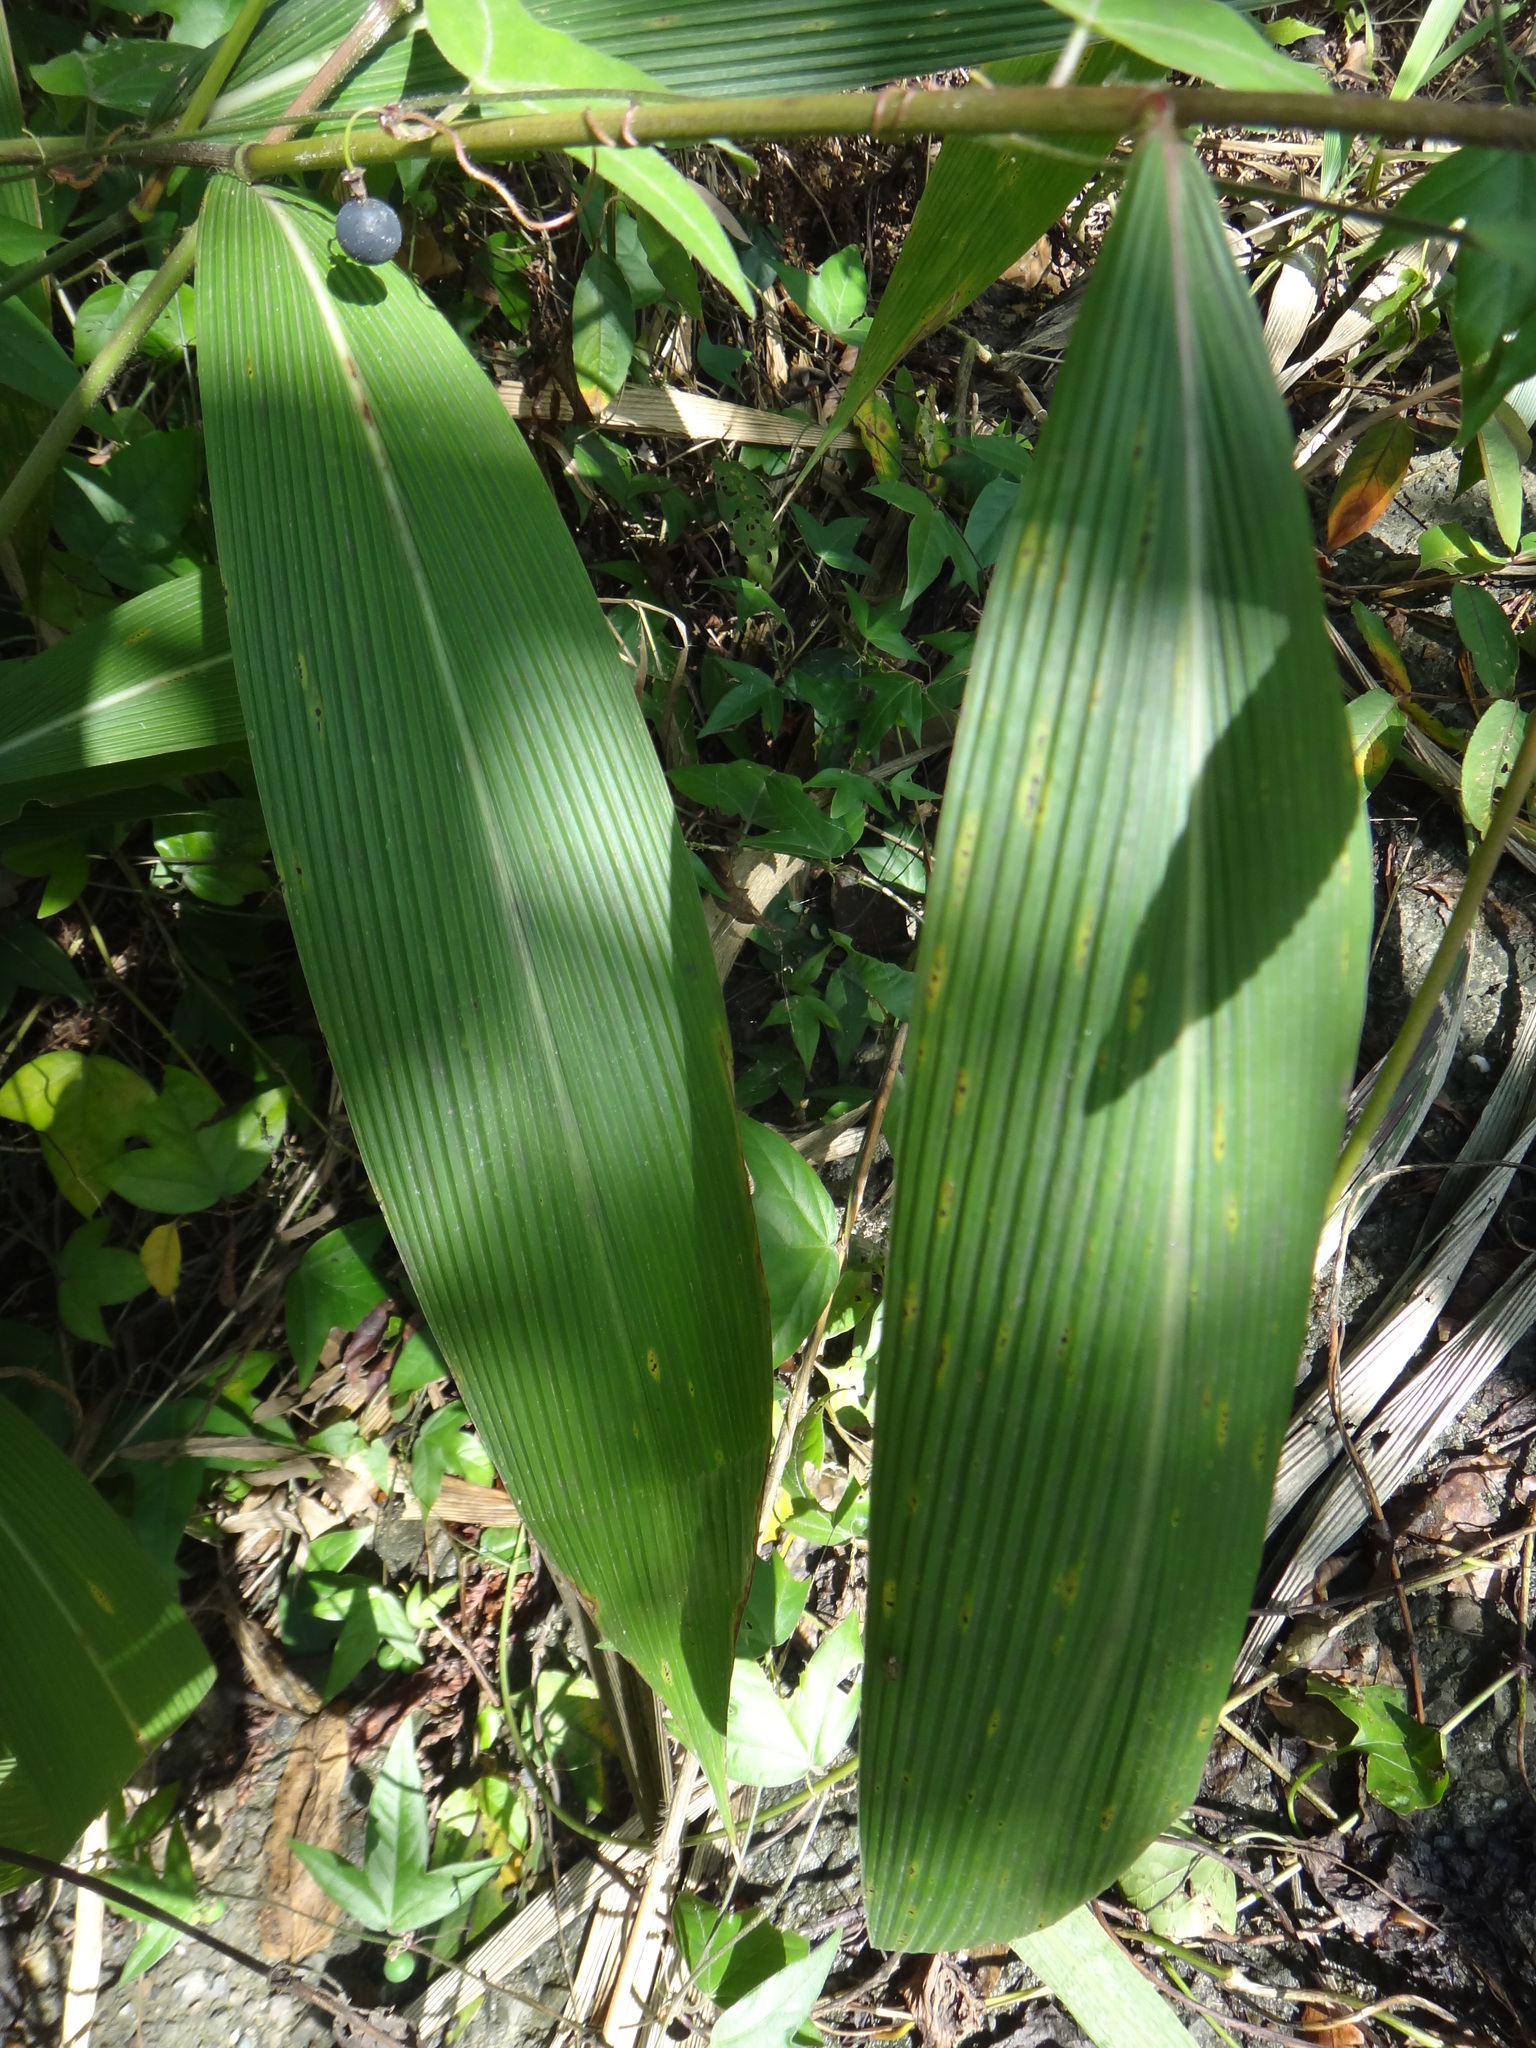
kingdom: Plantae
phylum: Tracheophyta
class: Liliopsida
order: Poales
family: Poaceae
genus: Setaria
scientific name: Setaria palmifolia
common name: Broadleaved bristlegrass
